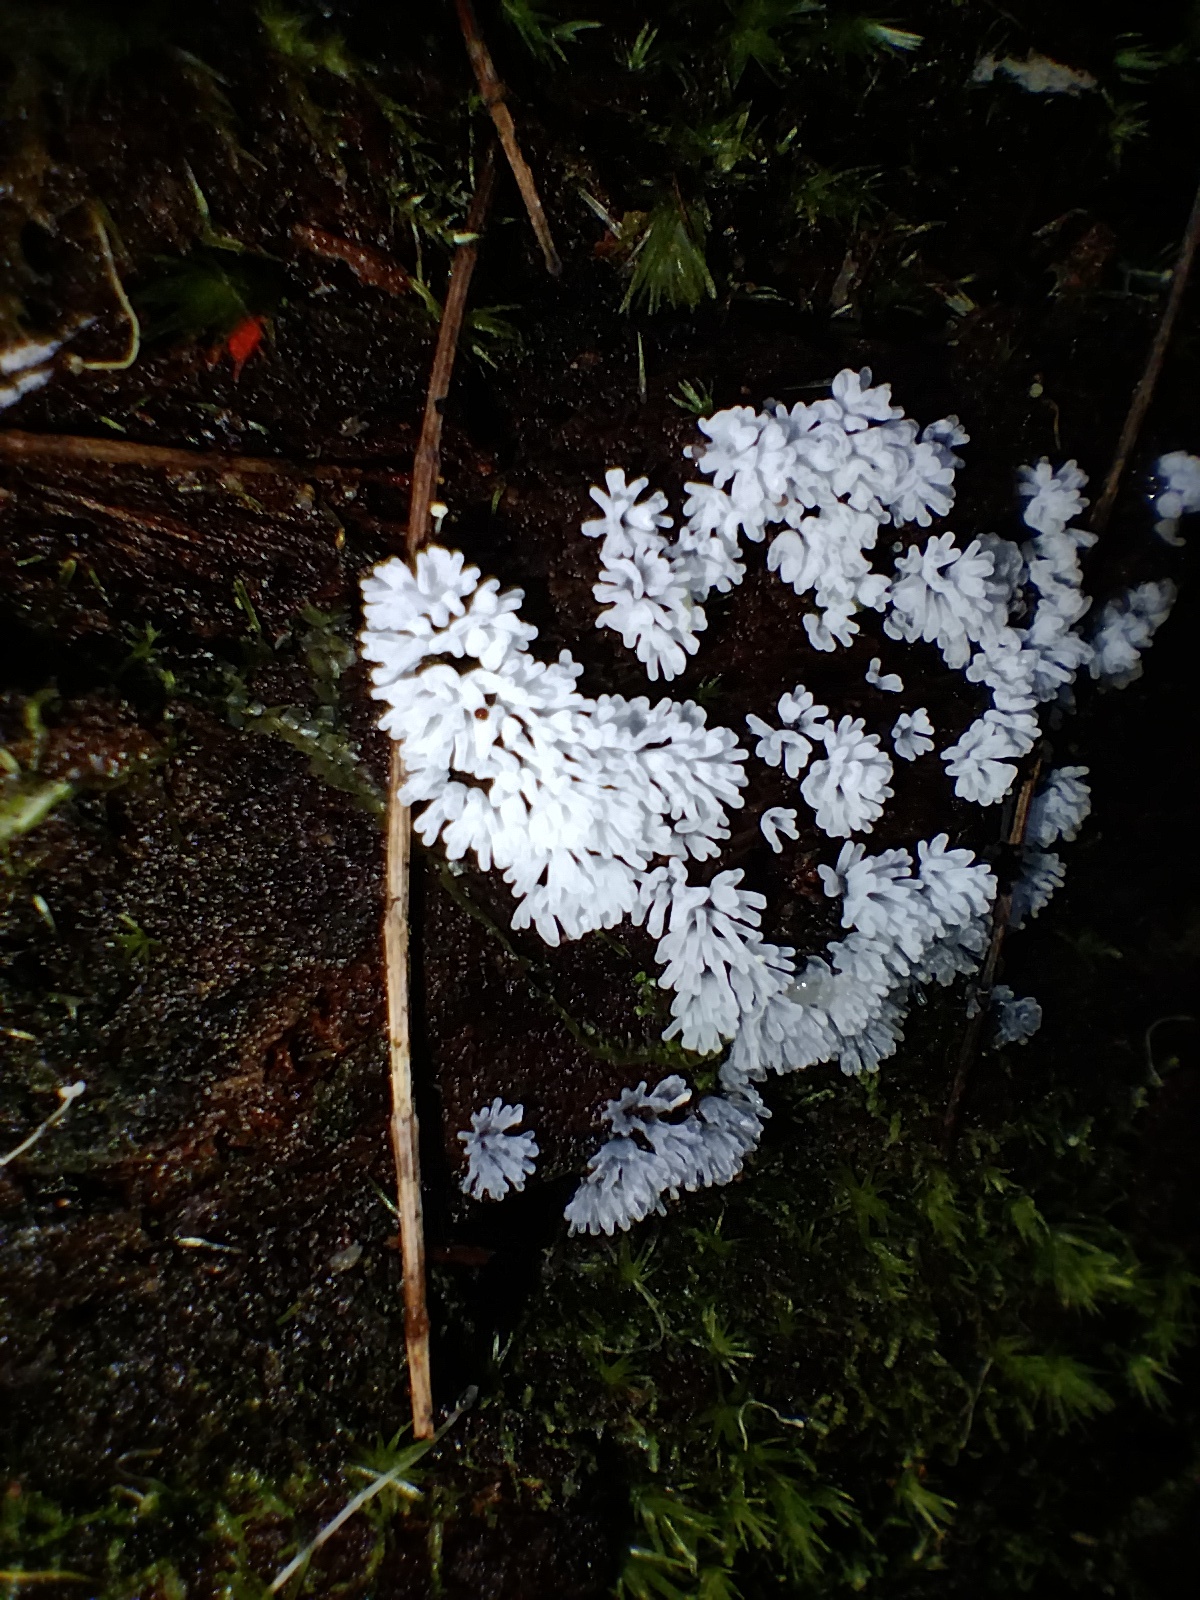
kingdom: Protozoa
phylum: Mycetozoa
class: Protosteliomycetes
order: Ceratiomyxales
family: Ceratiomyxaceae
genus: Ceratiomyxa
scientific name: Ceratiomyxa fruticulosa
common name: Honeycomb coral slime mold
